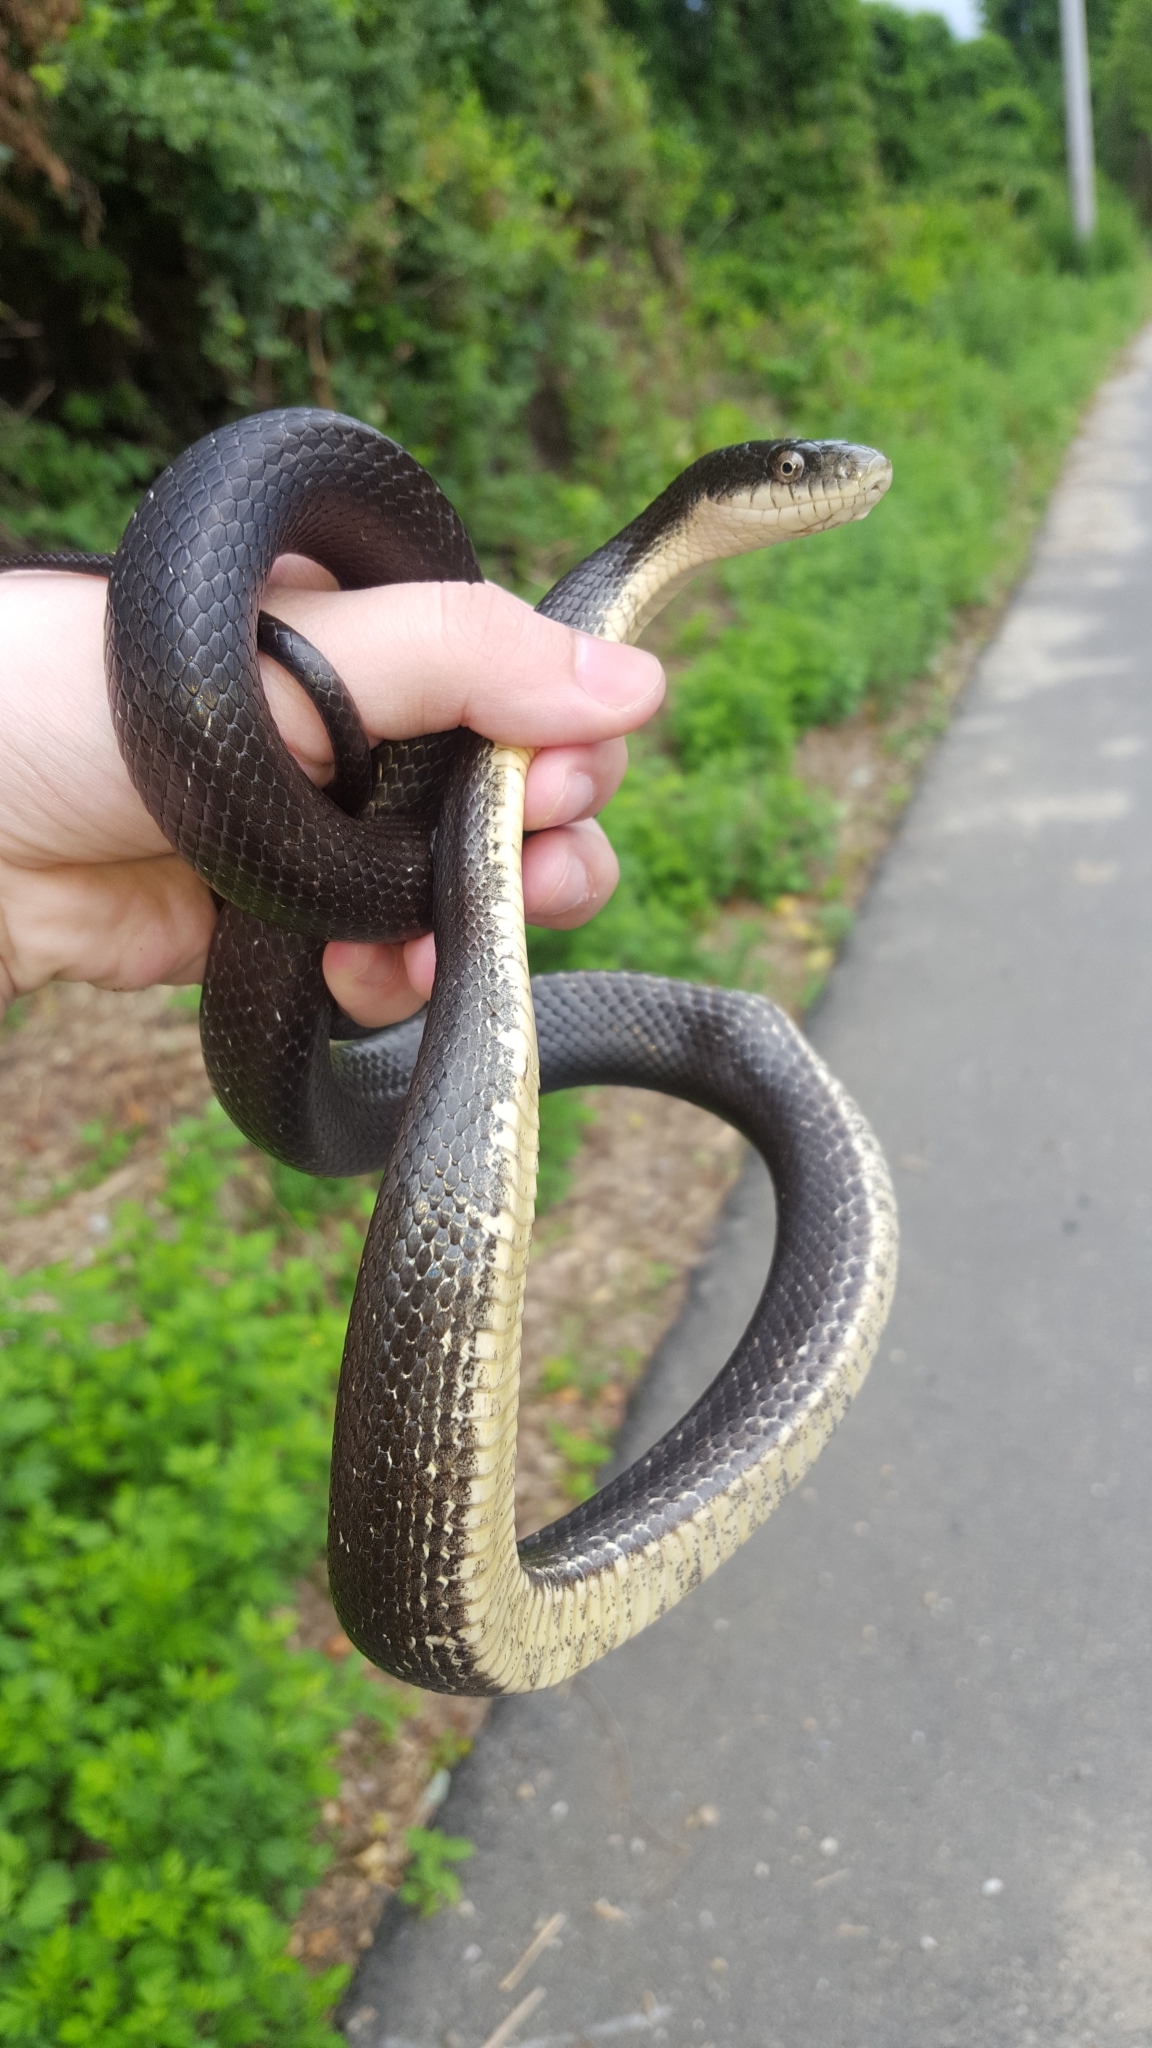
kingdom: Animalia
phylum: Chordata
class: Squamata
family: Colubridae
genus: Pantherophis
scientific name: Pantherophis alleghaniensis
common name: Eastern rat snake
